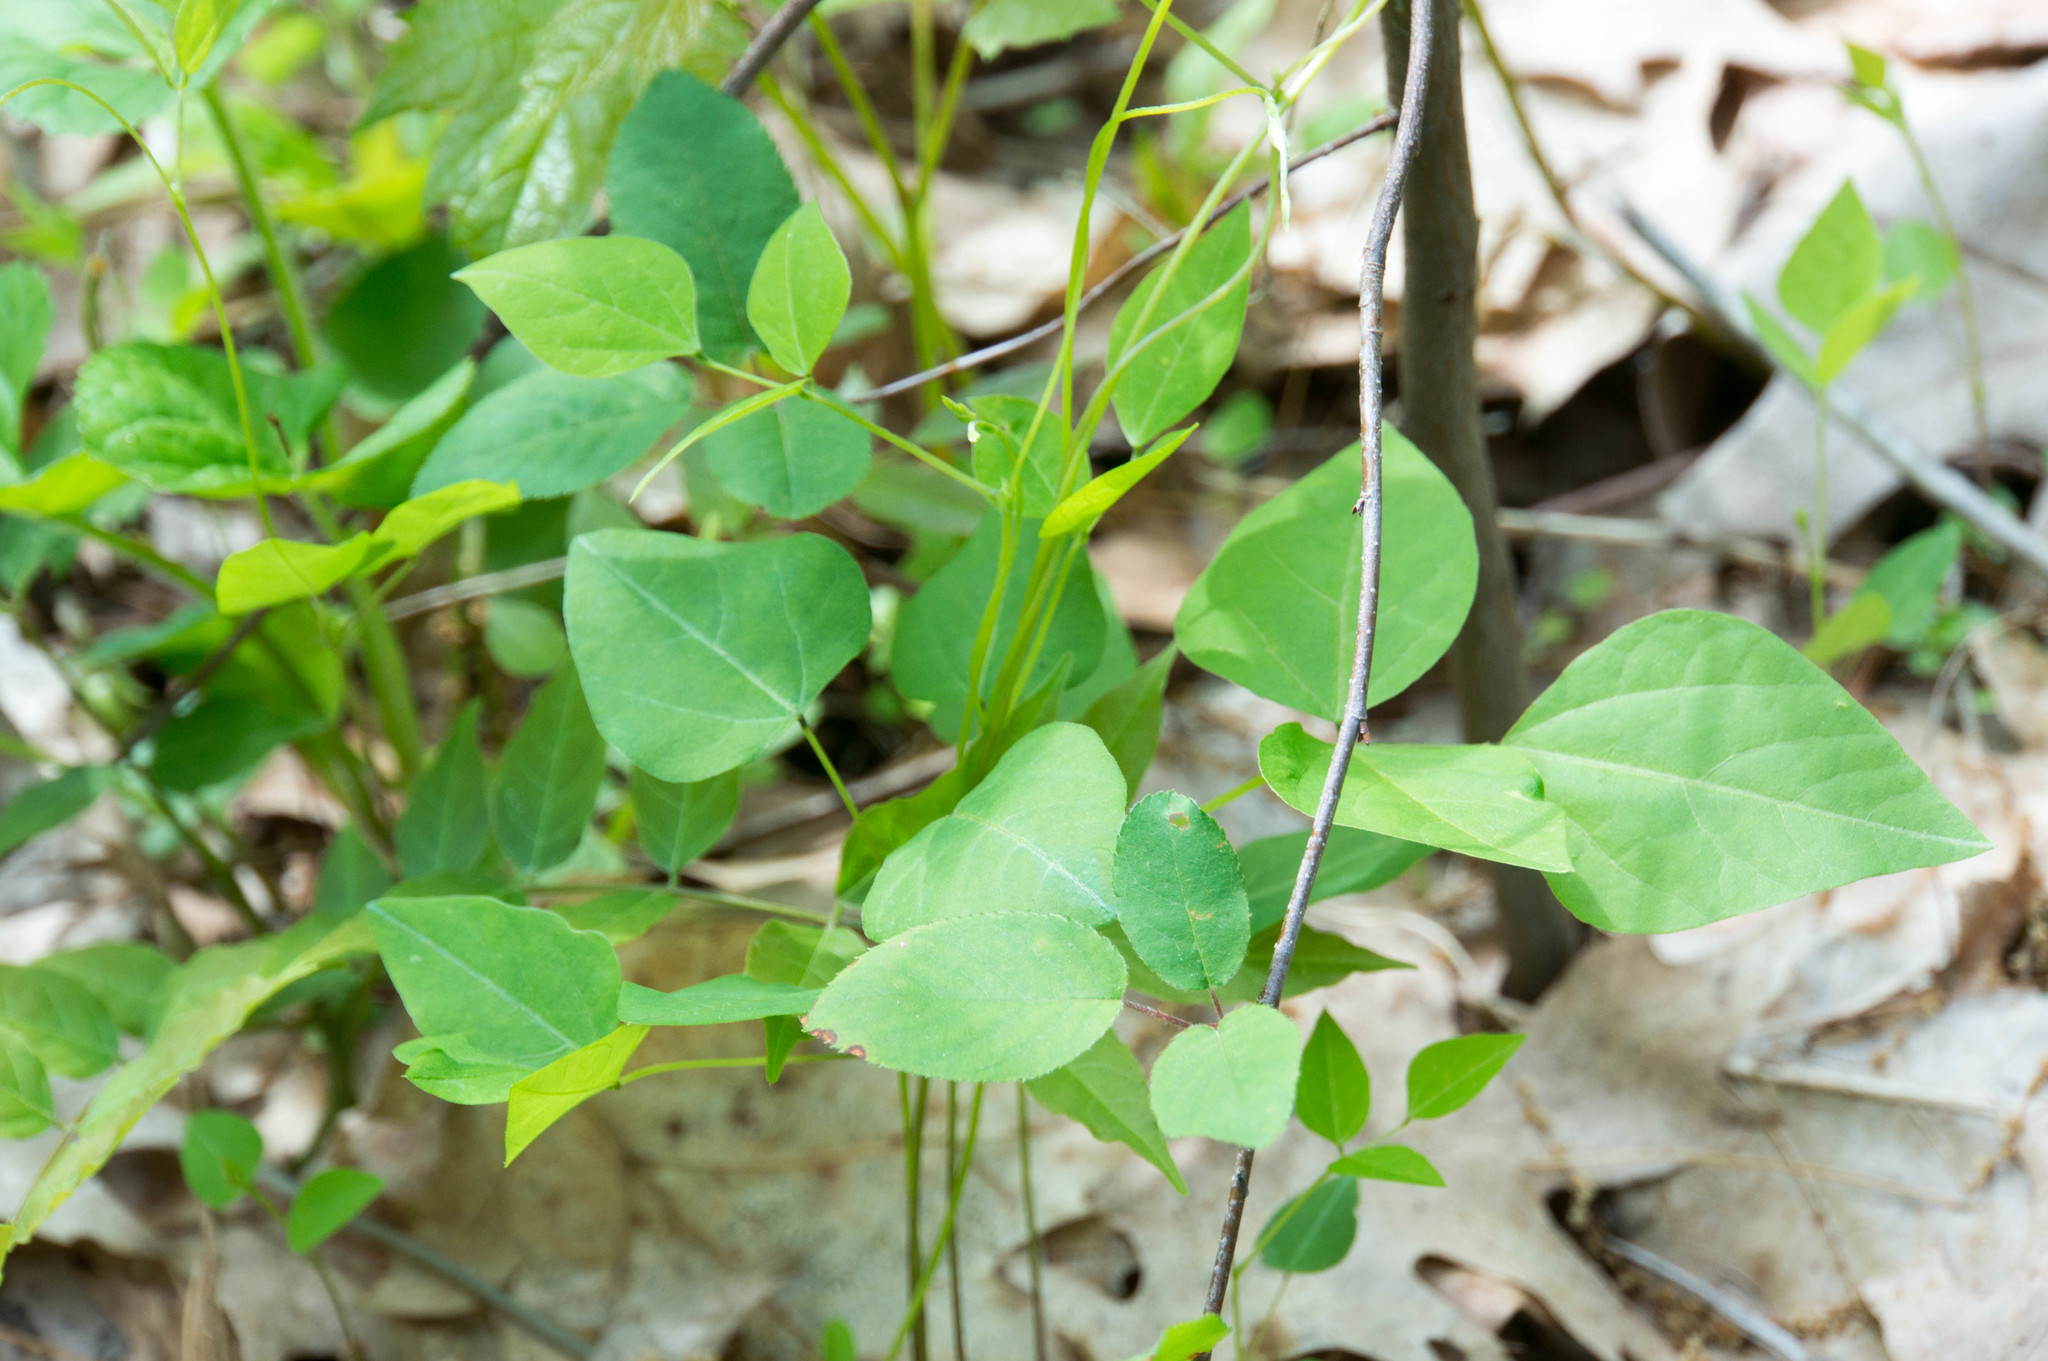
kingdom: Plantae
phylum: Tracheophyta
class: Magnoliopsida
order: Fabales
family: Fabaceae
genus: Amphicarpaea
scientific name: Amphicarpaea bracteata
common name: American hog peanut
